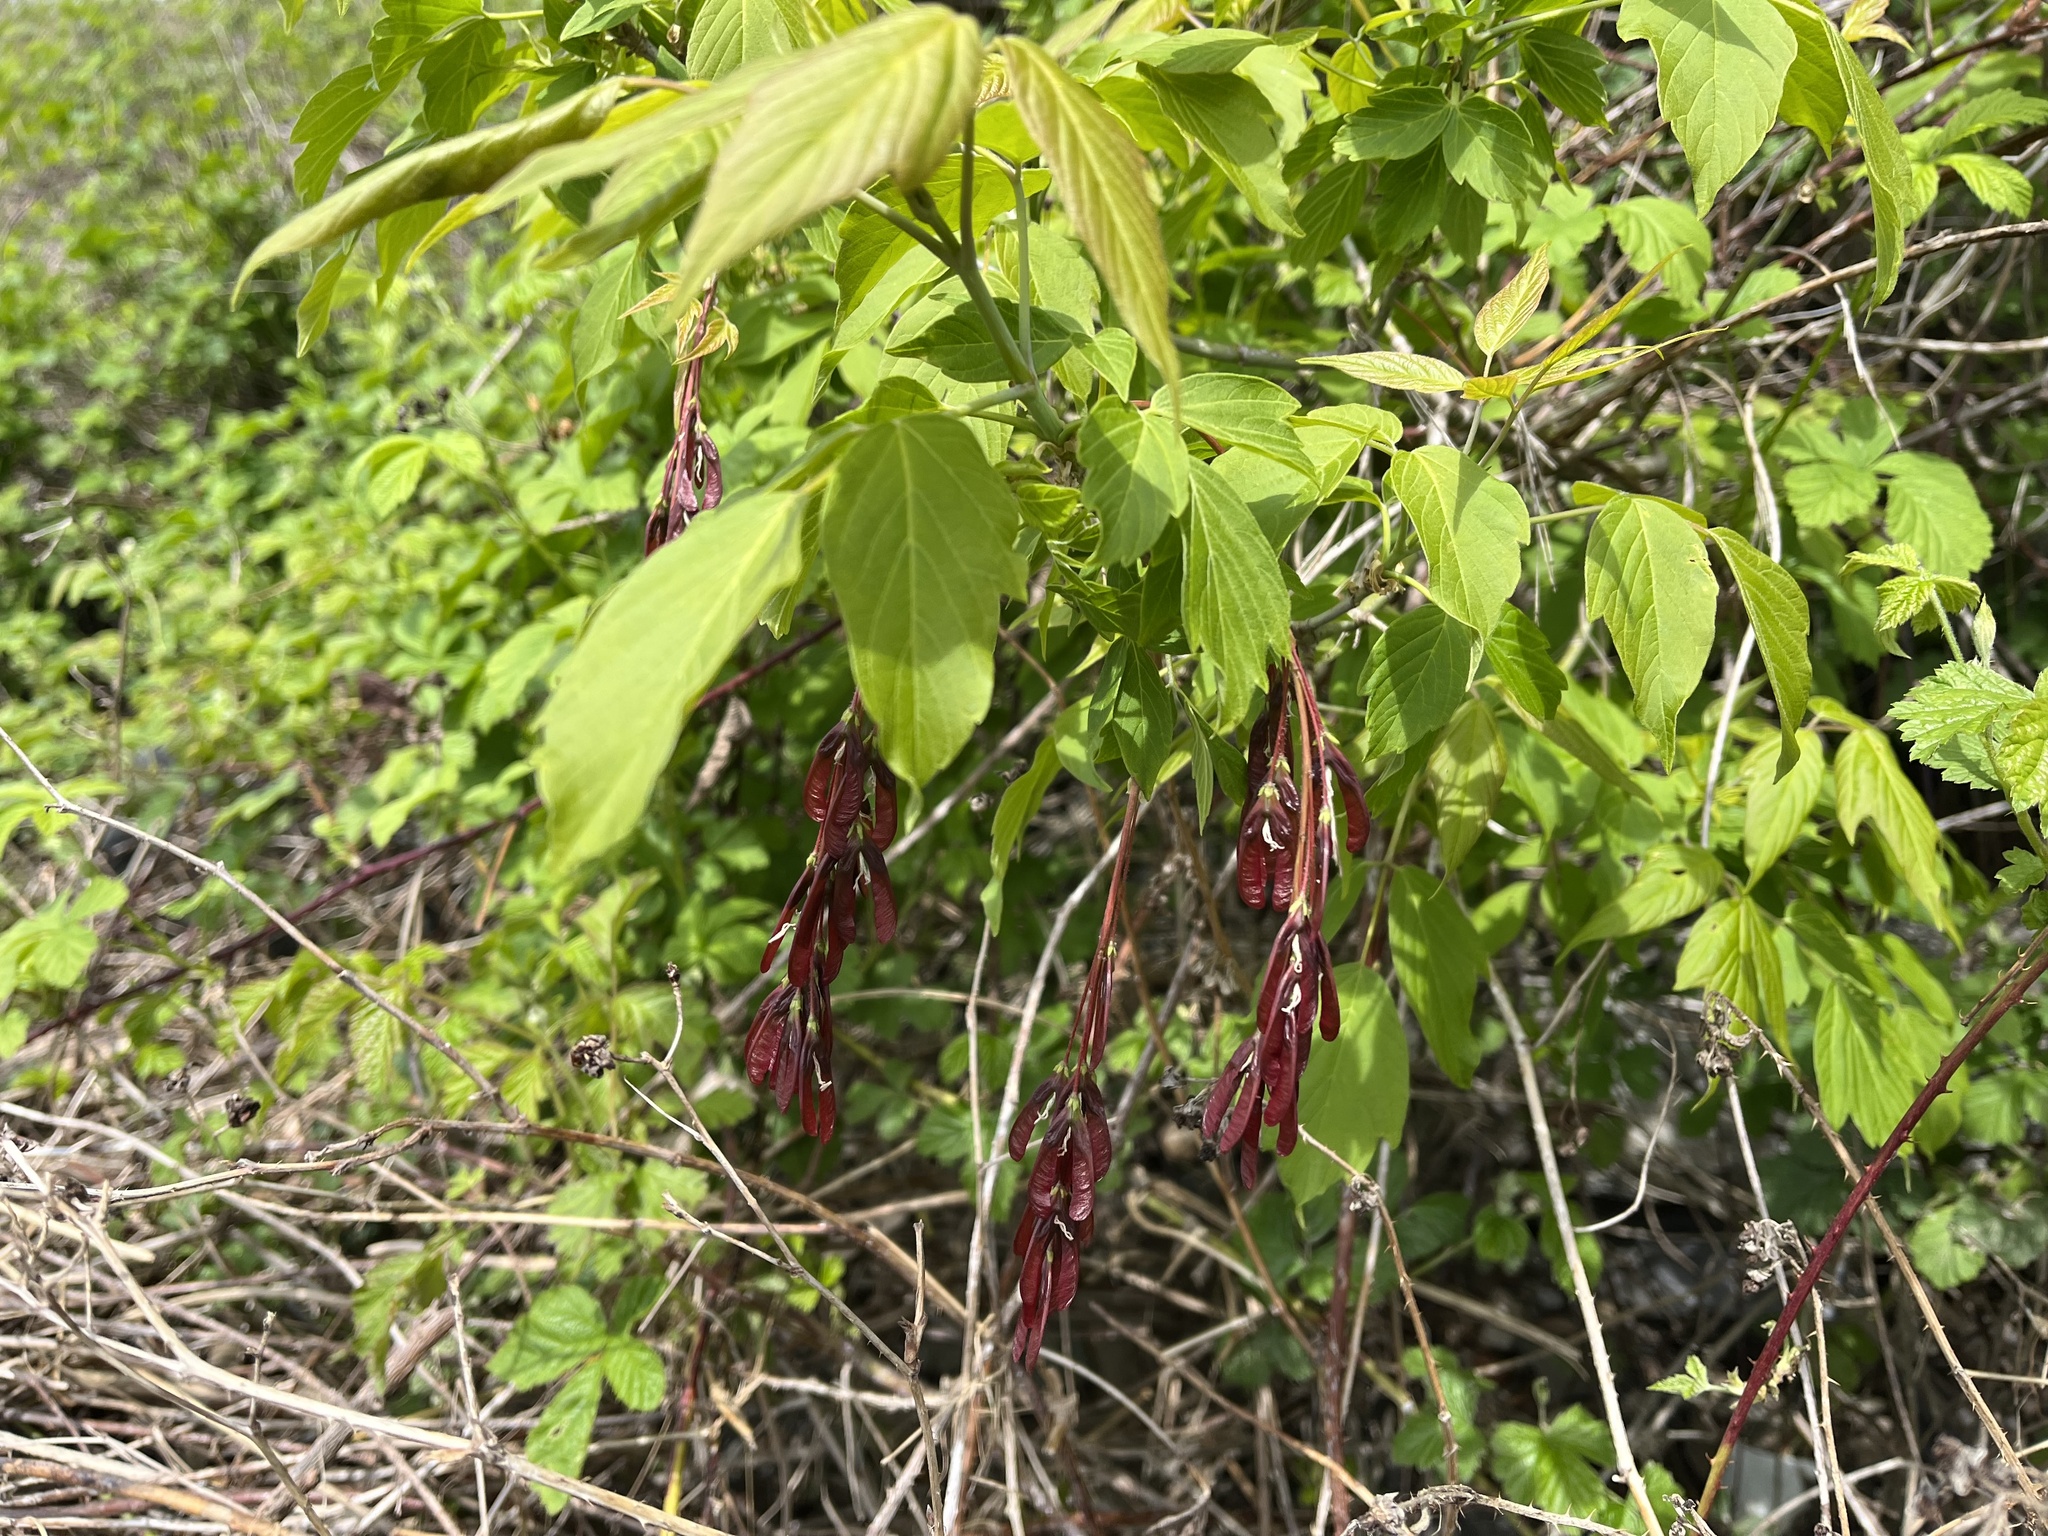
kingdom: Plantae
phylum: Tracheophyta
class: Magnoliopsida
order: Sapindales
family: Sapindaceae
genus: Acer
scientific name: Acer negundo
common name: Ashleaf maple
